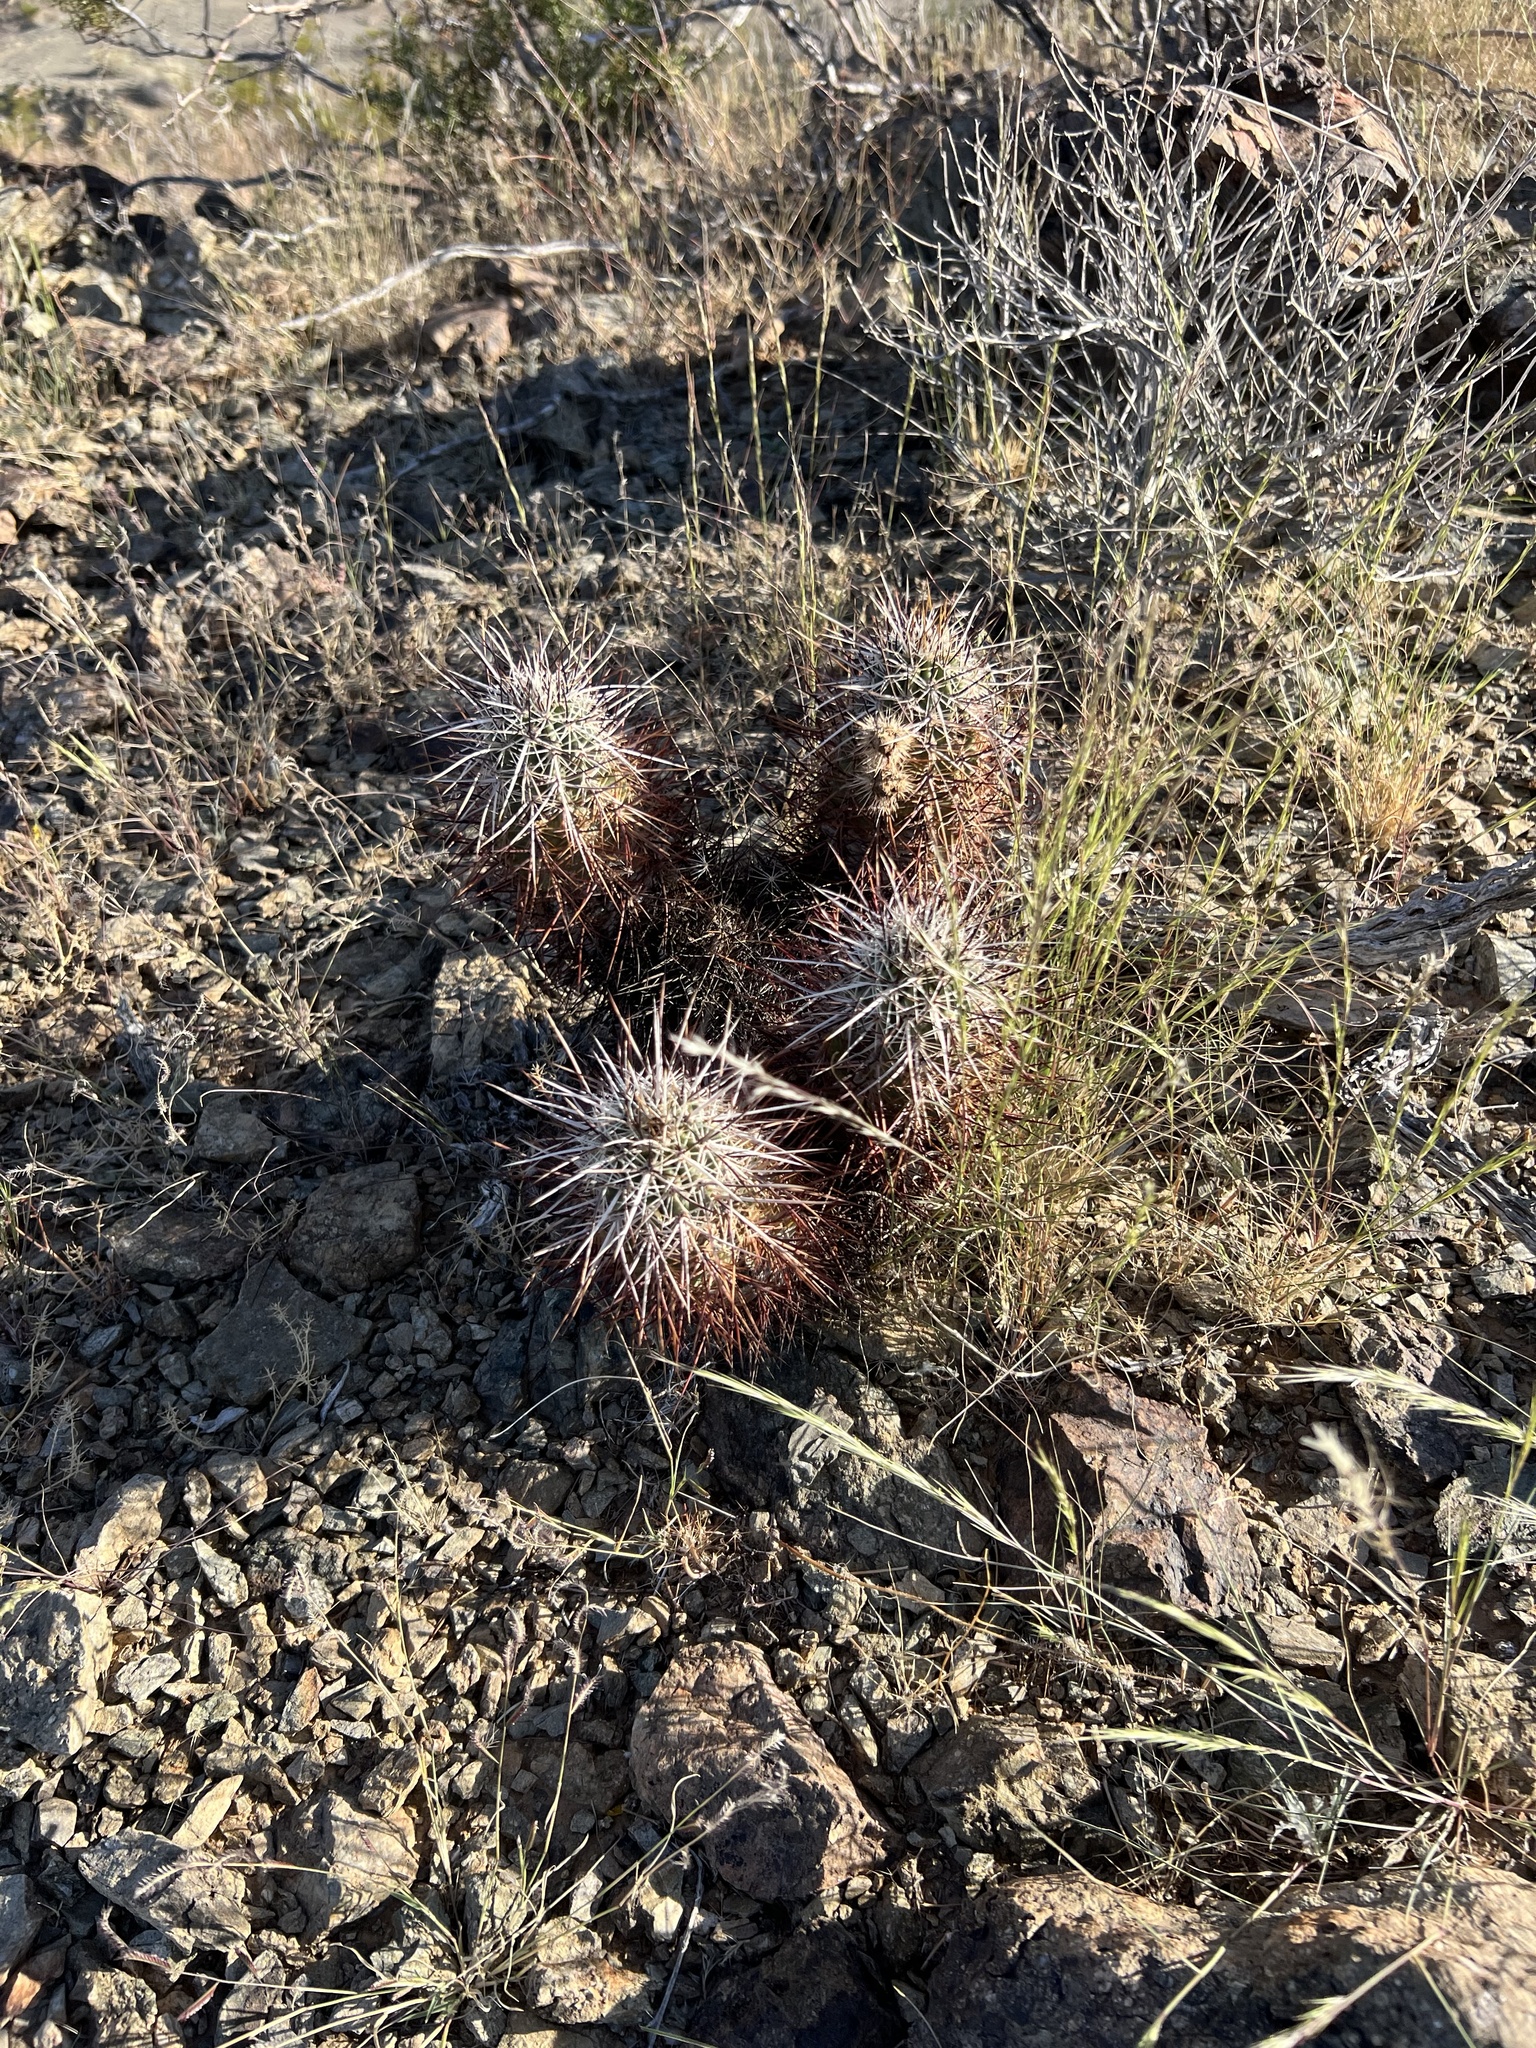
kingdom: Plantae
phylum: Tracheophyta
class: Magnoliopsida
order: Caryophyllales
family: Cactaceae
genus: Echinocereus
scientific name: Echinocereus engelmannii
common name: Engelmann's hedgehog cactus
